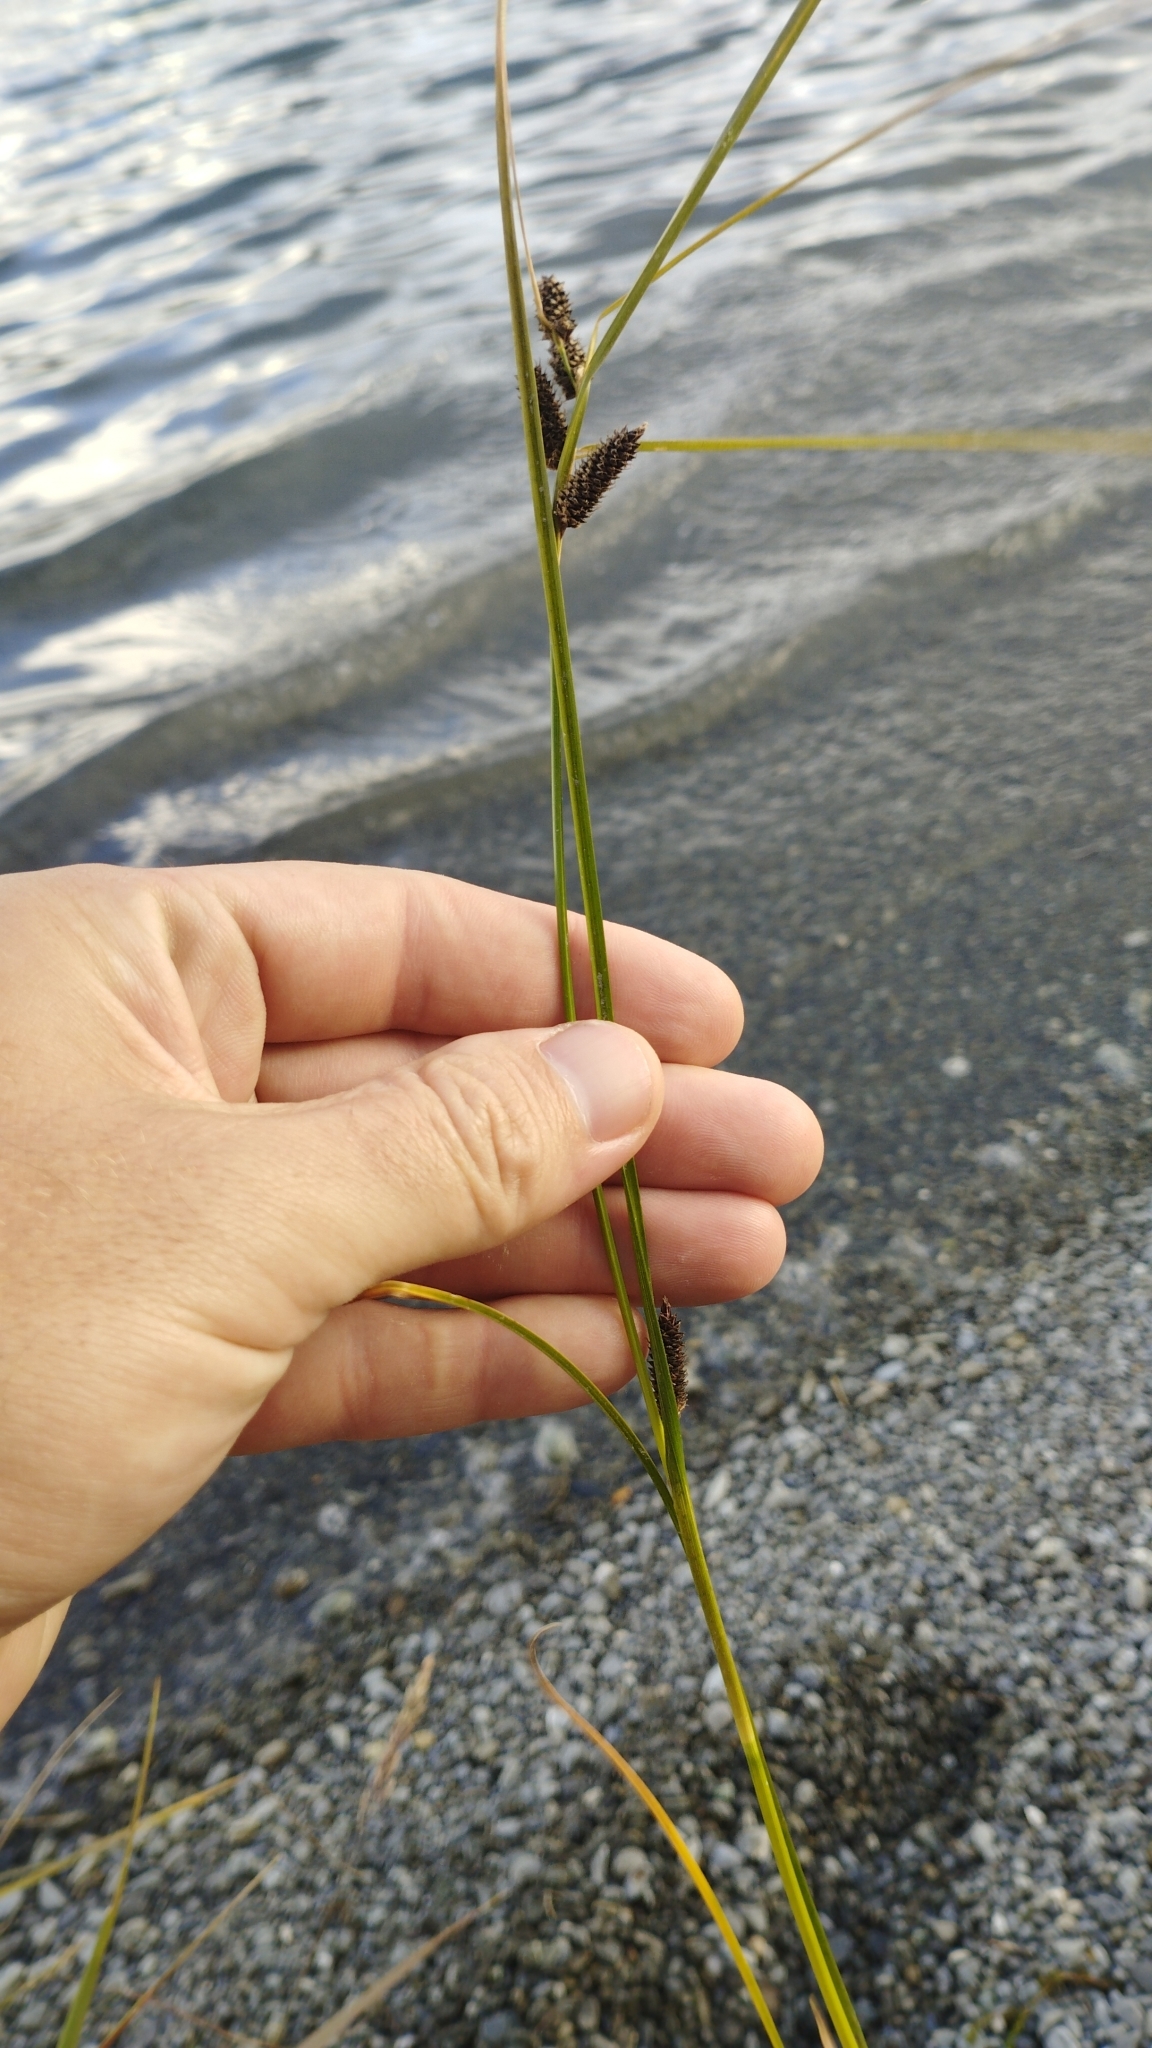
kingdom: Plantae
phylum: Tracheophyta
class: Liliopsida
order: Poales
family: Cyperaceae
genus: Carex
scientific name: Carex dipsacea
